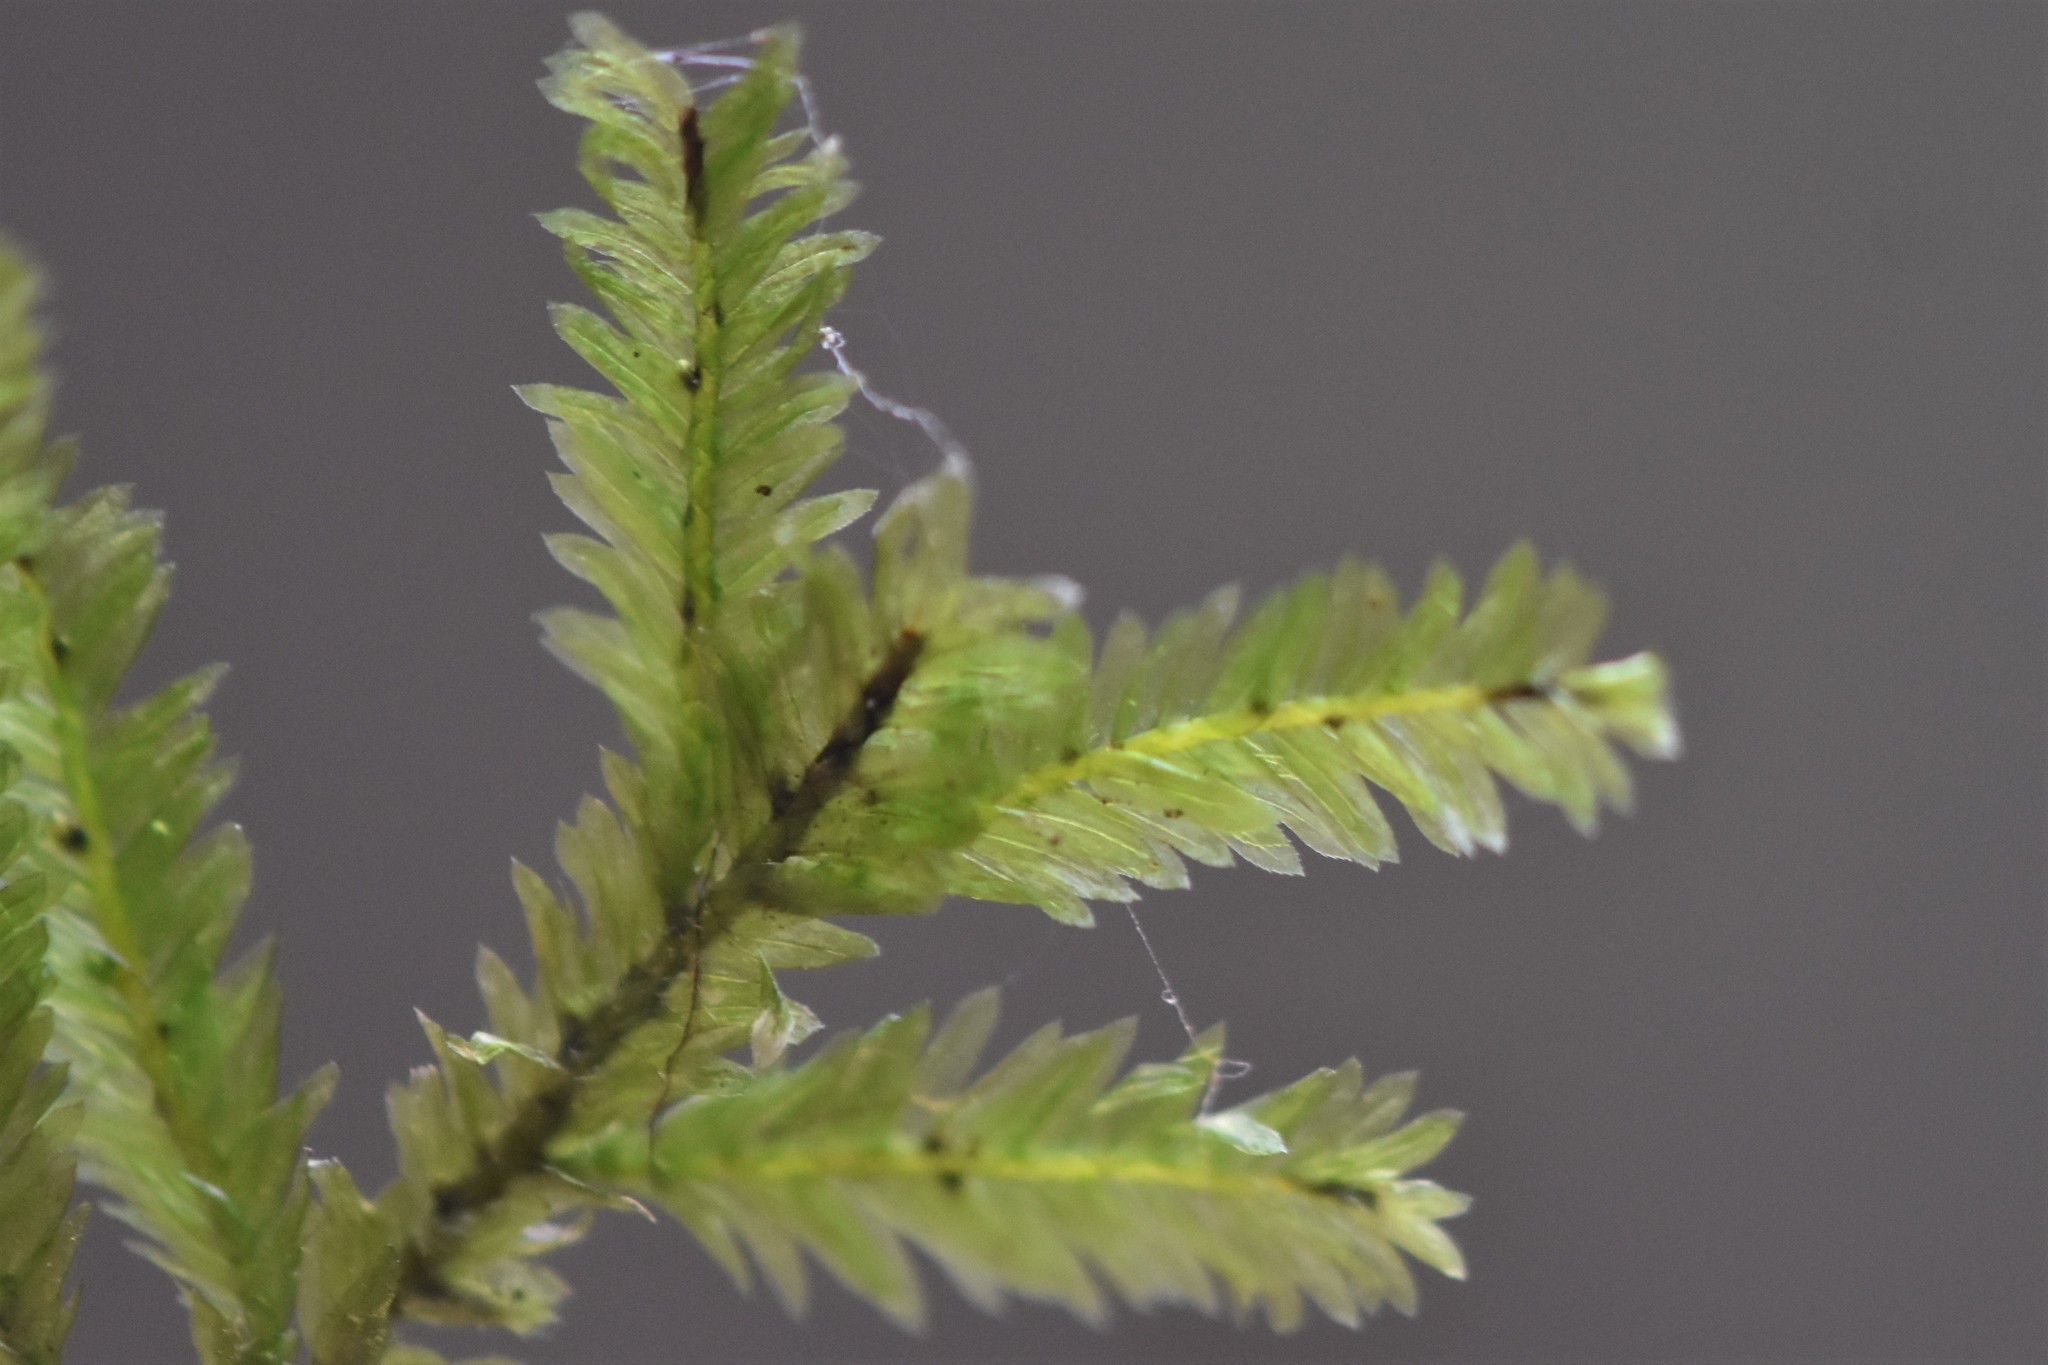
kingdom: Plantae
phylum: Bryophyta
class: Bryopsida
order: Hypnales
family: Neckeraceae
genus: Dannorrisia
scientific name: Dannorrisia bigelovii
